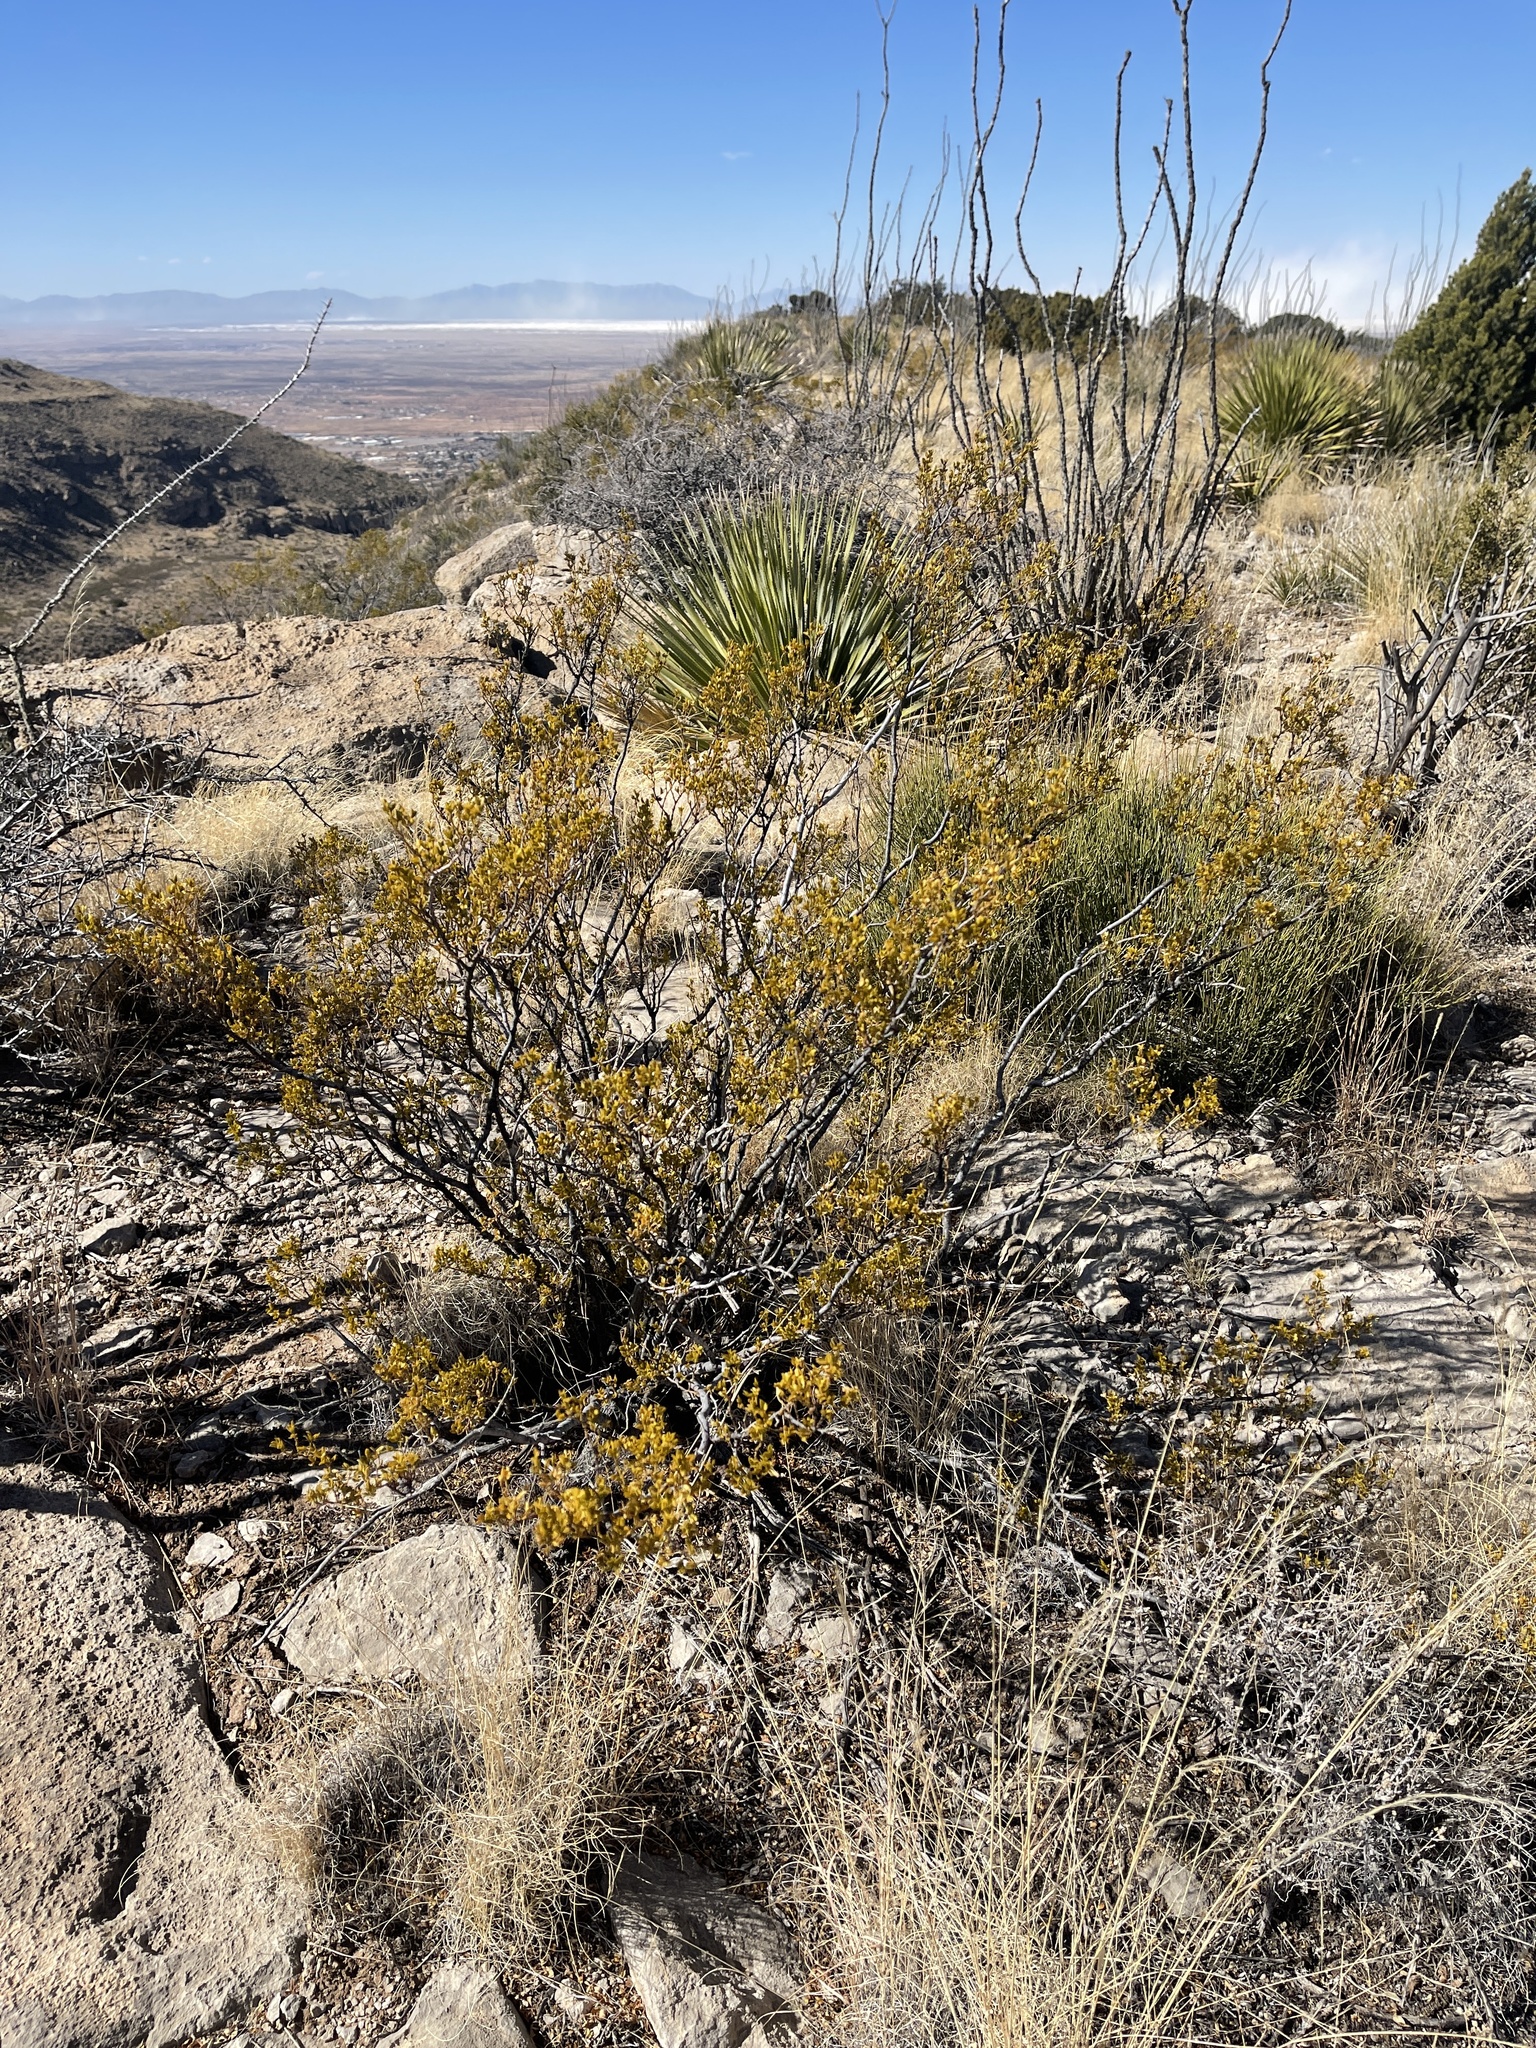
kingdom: Plantae
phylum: Tracheophyta
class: Magnoliopsida
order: Zygophyllales
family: Zygophyllaceae
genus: Larrea
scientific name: Larrea tridentata
